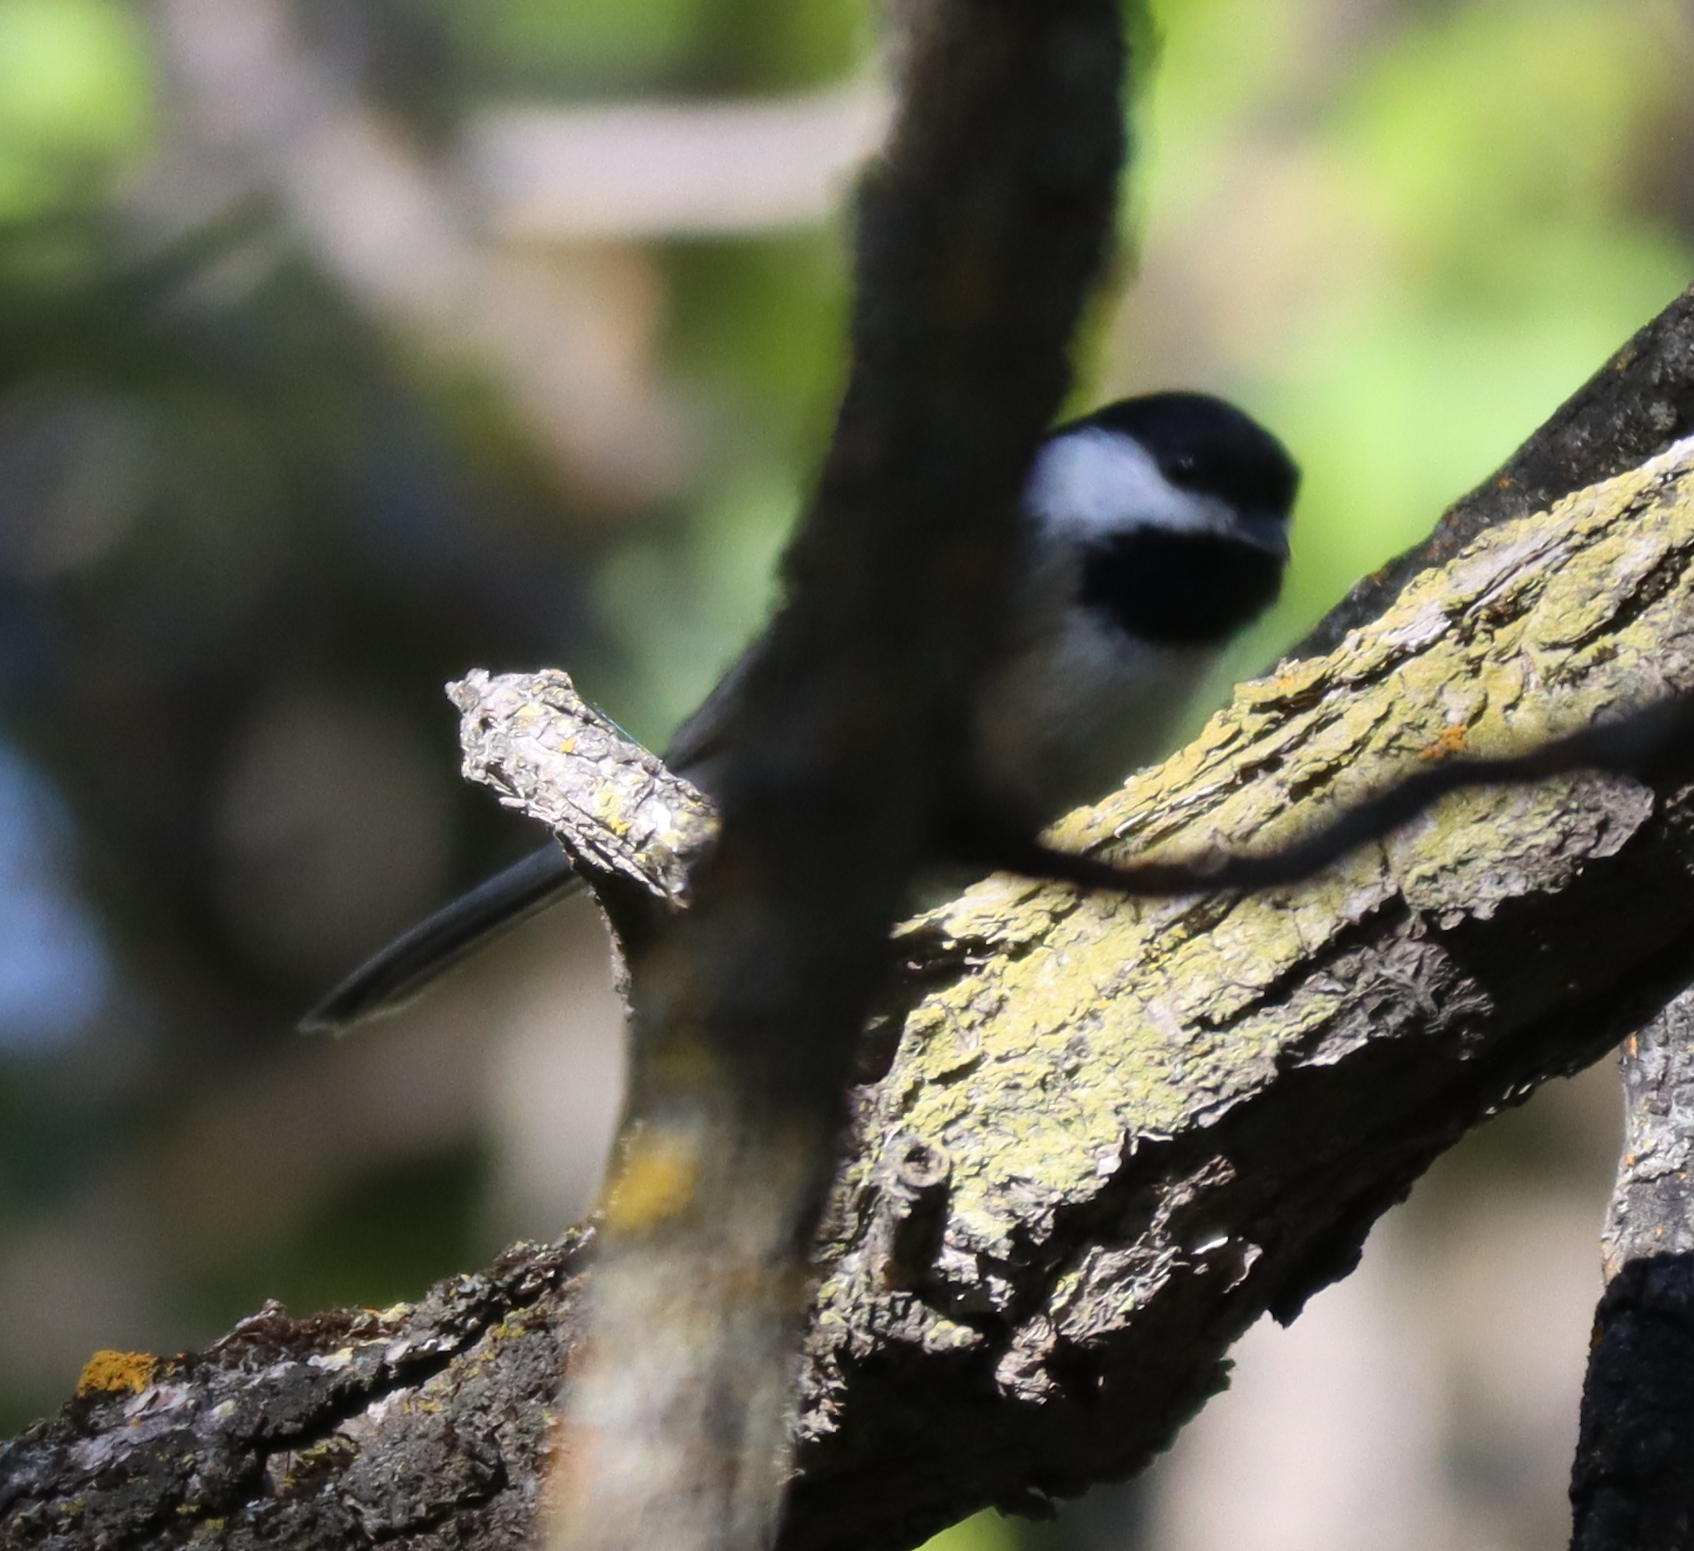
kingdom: Animalia
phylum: Chordata
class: Aves
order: Passeriformes
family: Paridae
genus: Poecile
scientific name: Poecile atricapillus
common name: Black-capped chickadee
